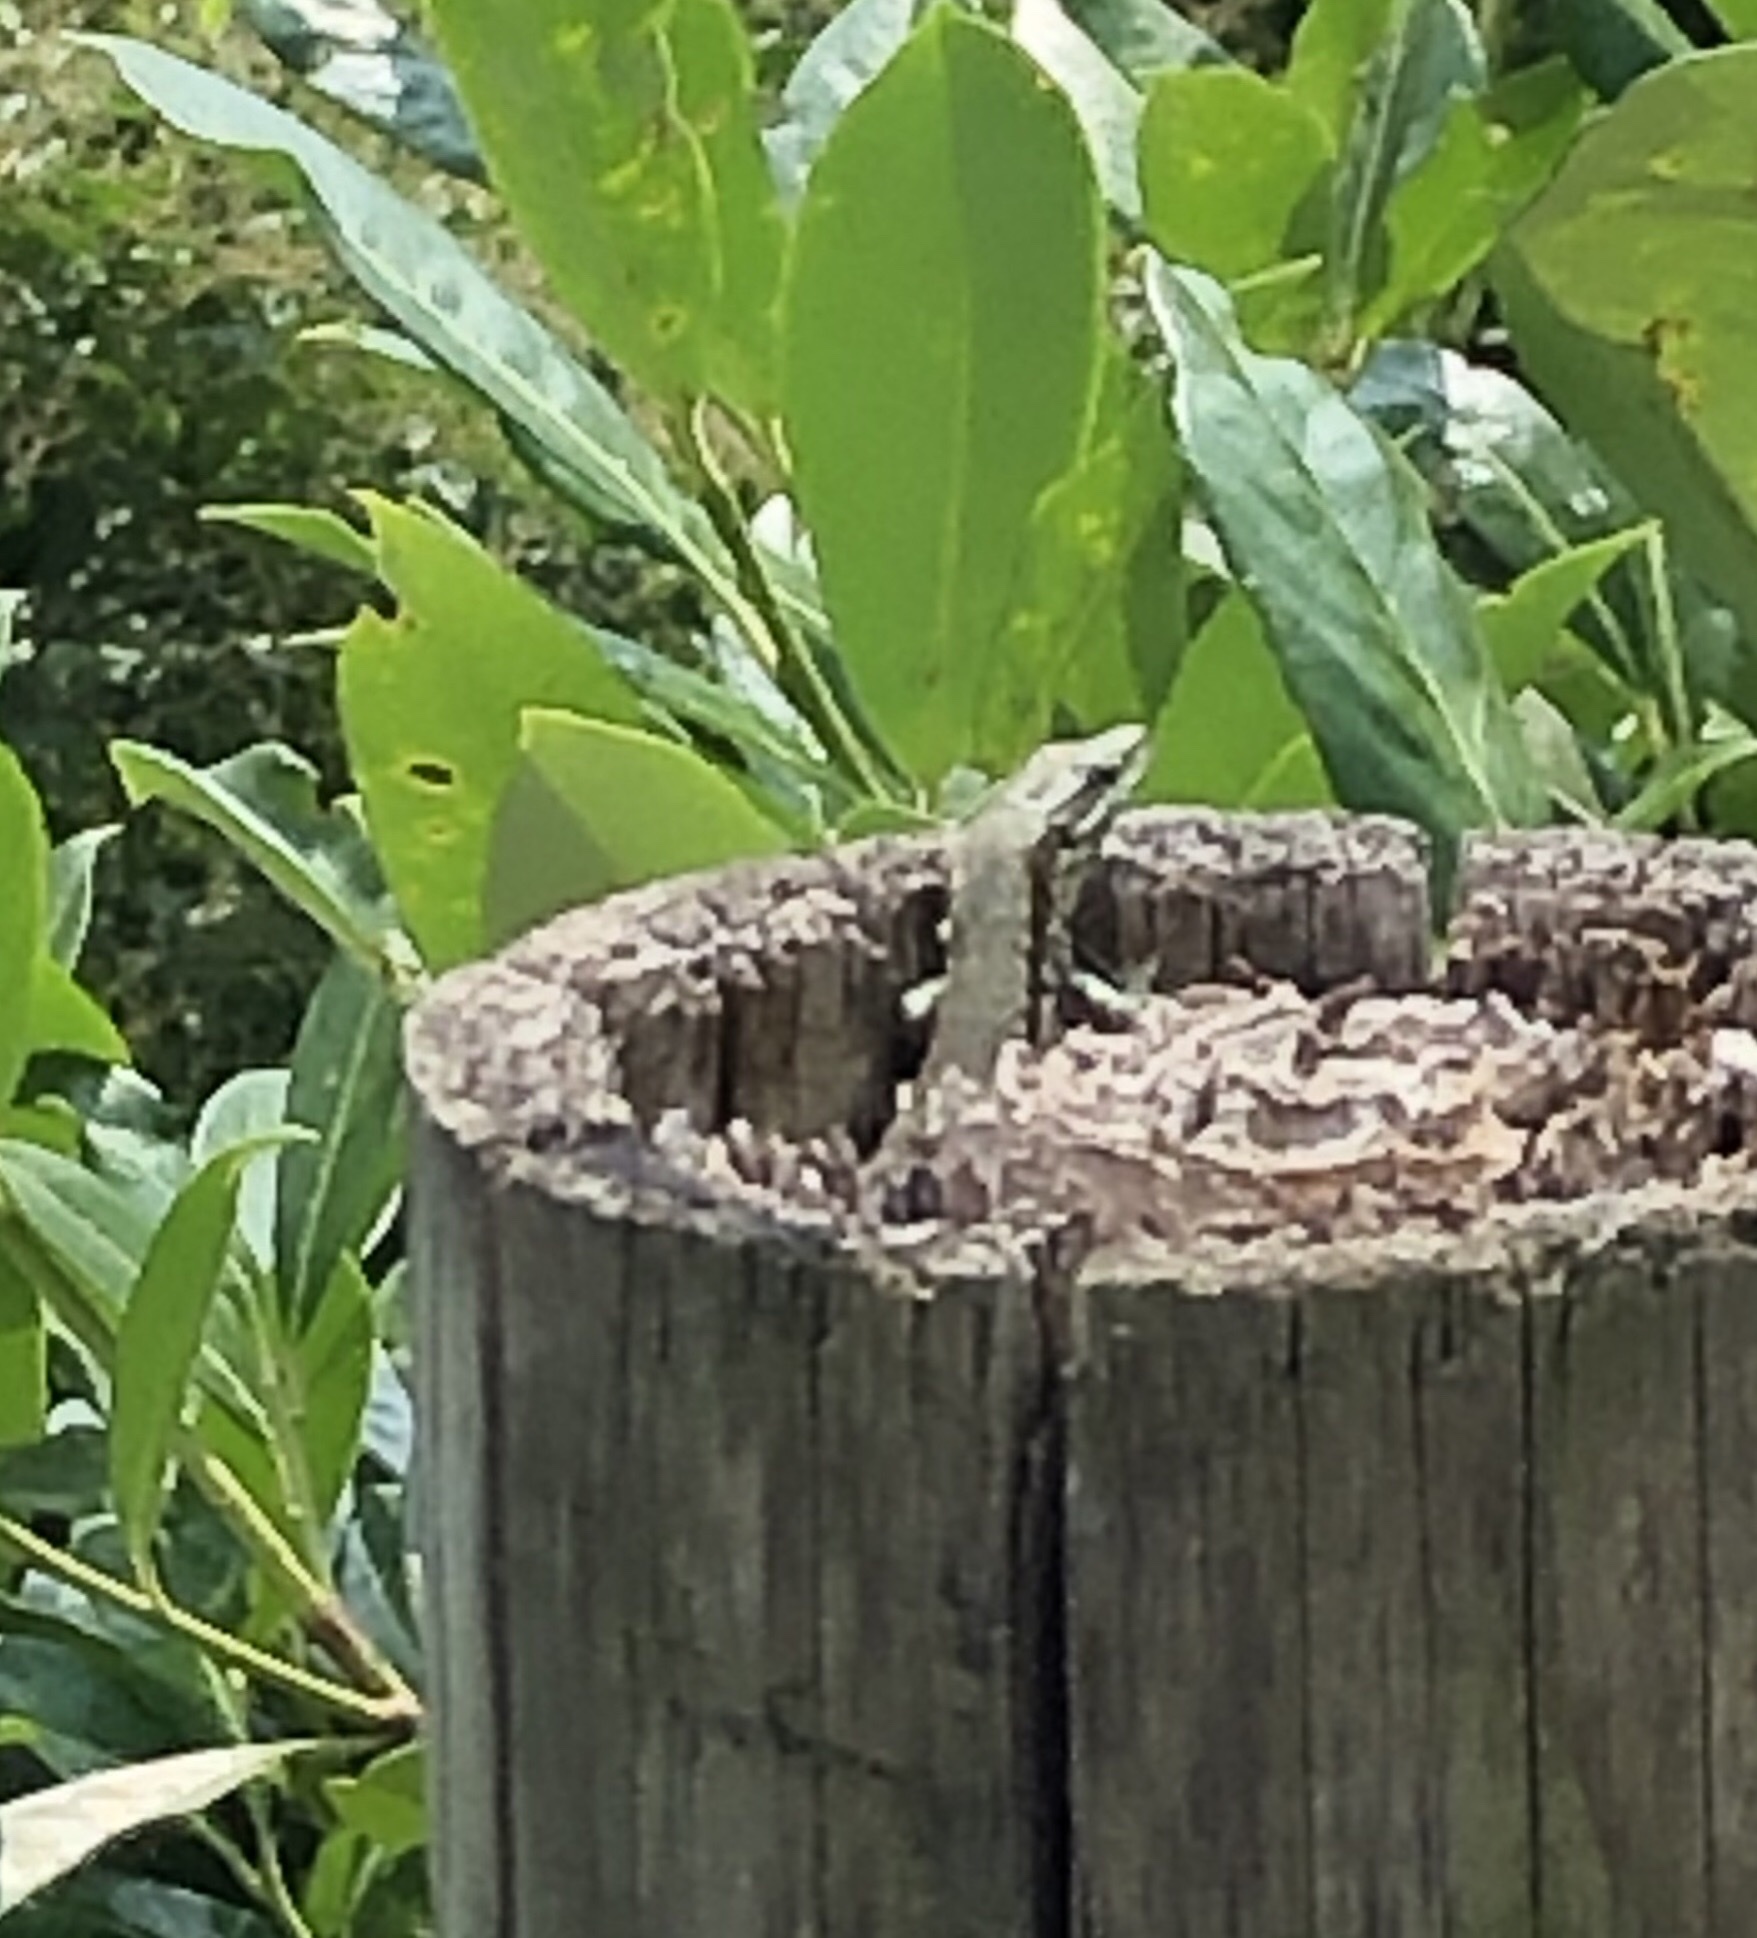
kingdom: Animalia
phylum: Chordata
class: Squamata
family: Lacertidae
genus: Podarcis
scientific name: Podarcis muralis
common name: Common wall lizard
